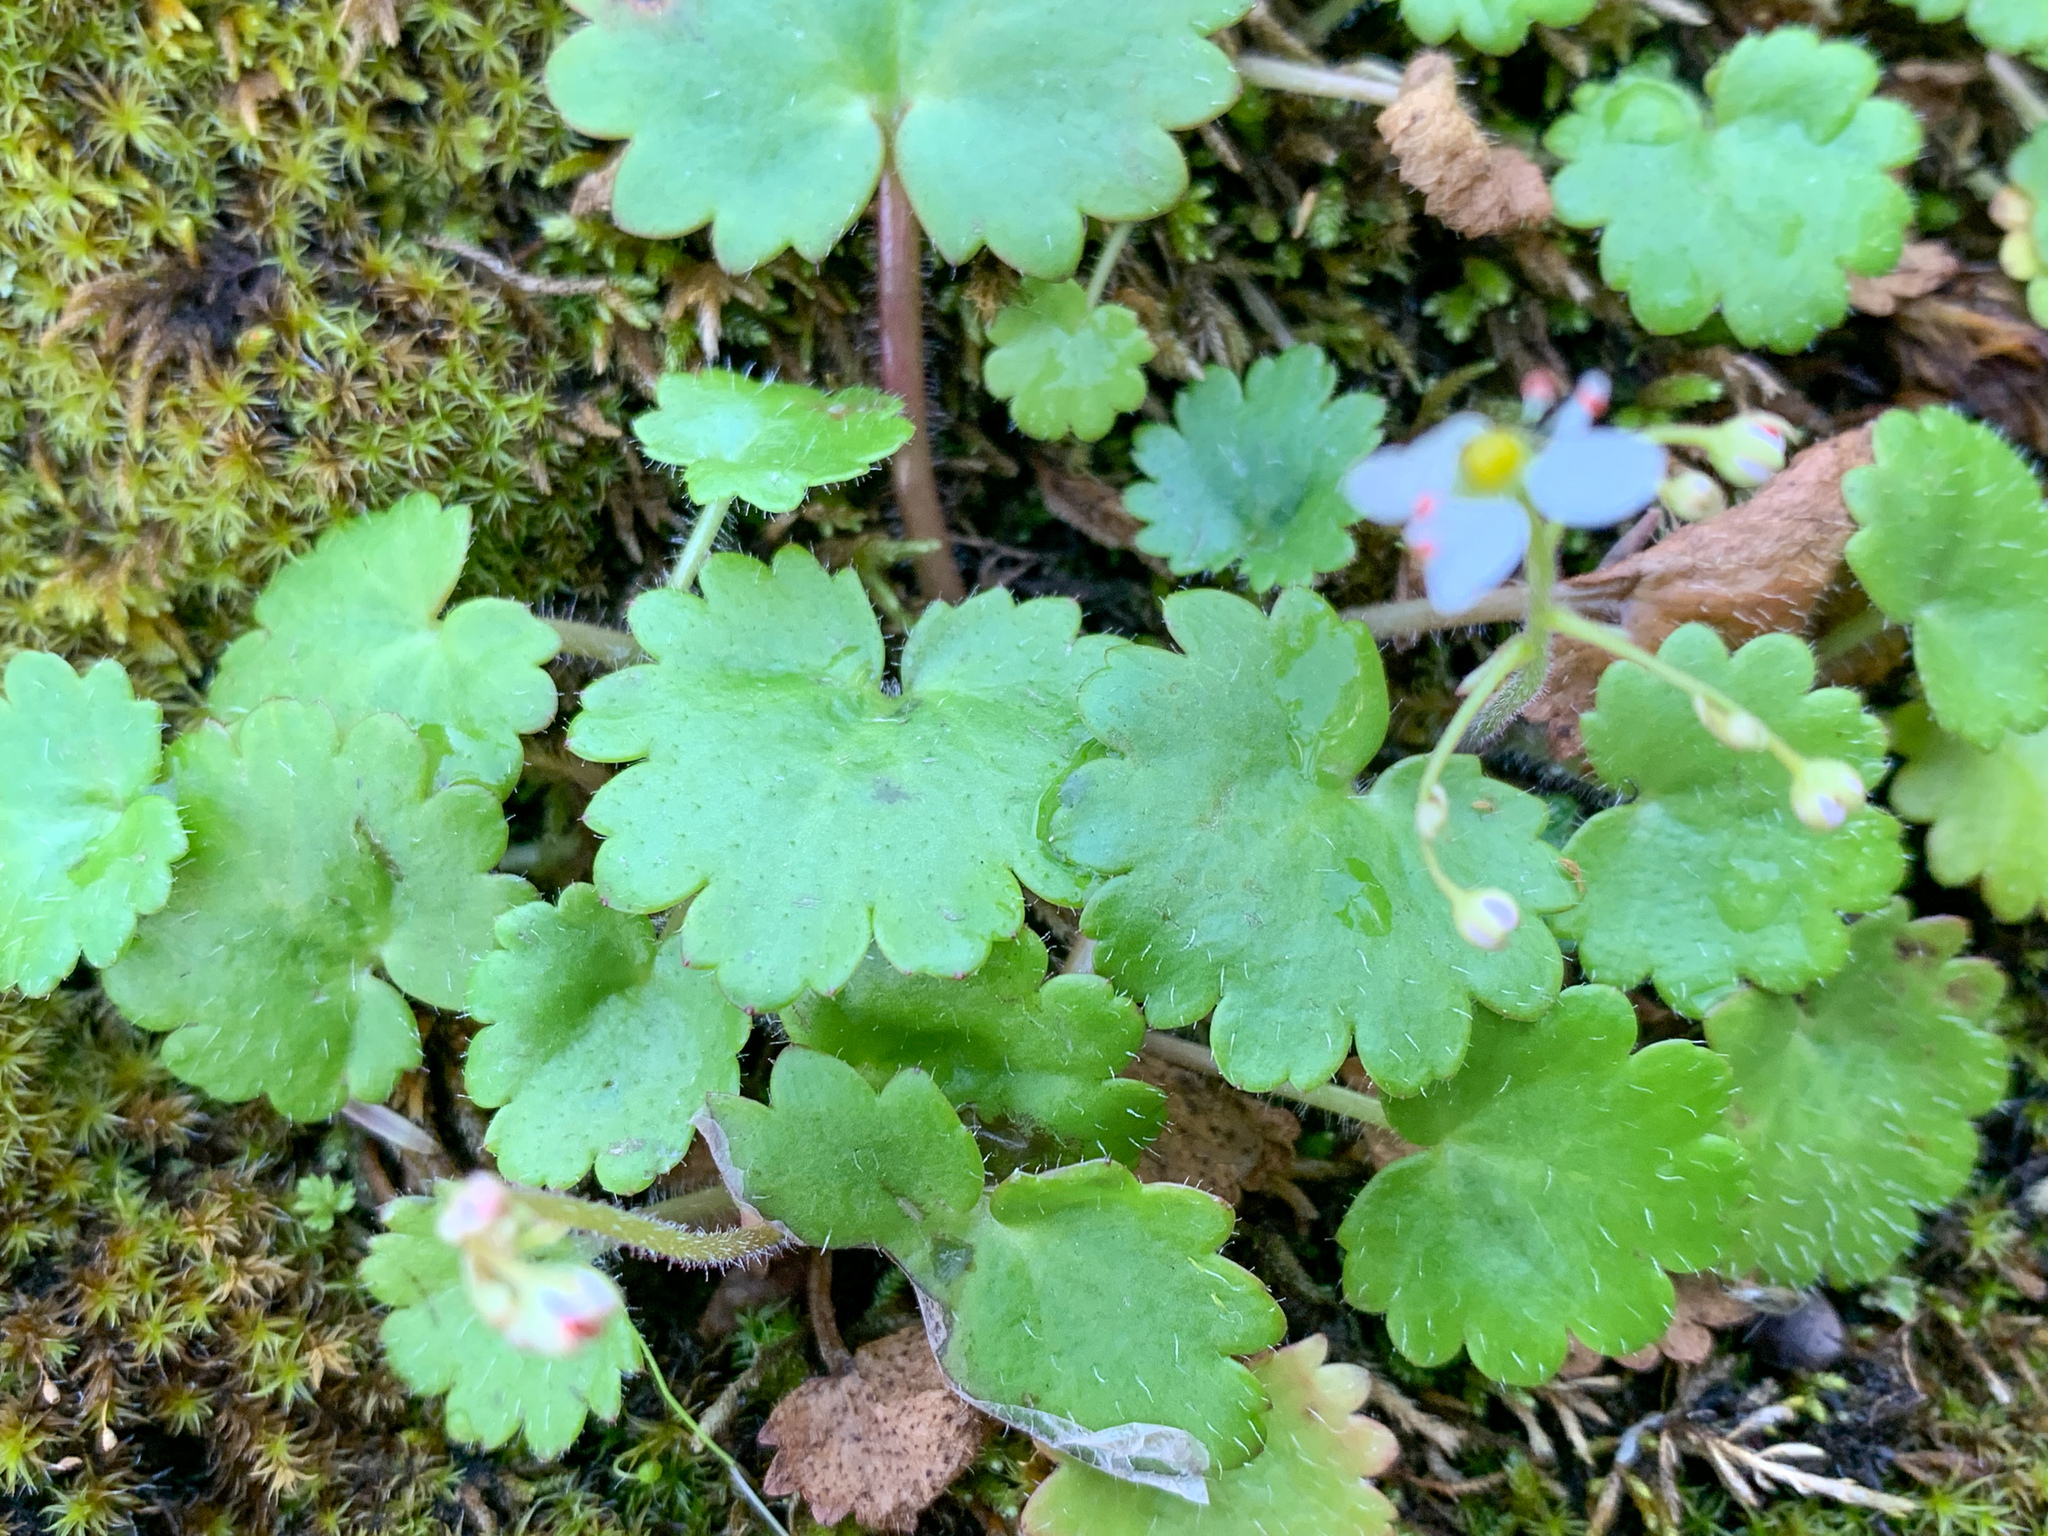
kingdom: Plantae
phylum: Tracheophyta
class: Magnoliopsida
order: Saxifragales
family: Saxifragaceae
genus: Micranthes
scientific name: Micranthes mertensiana
